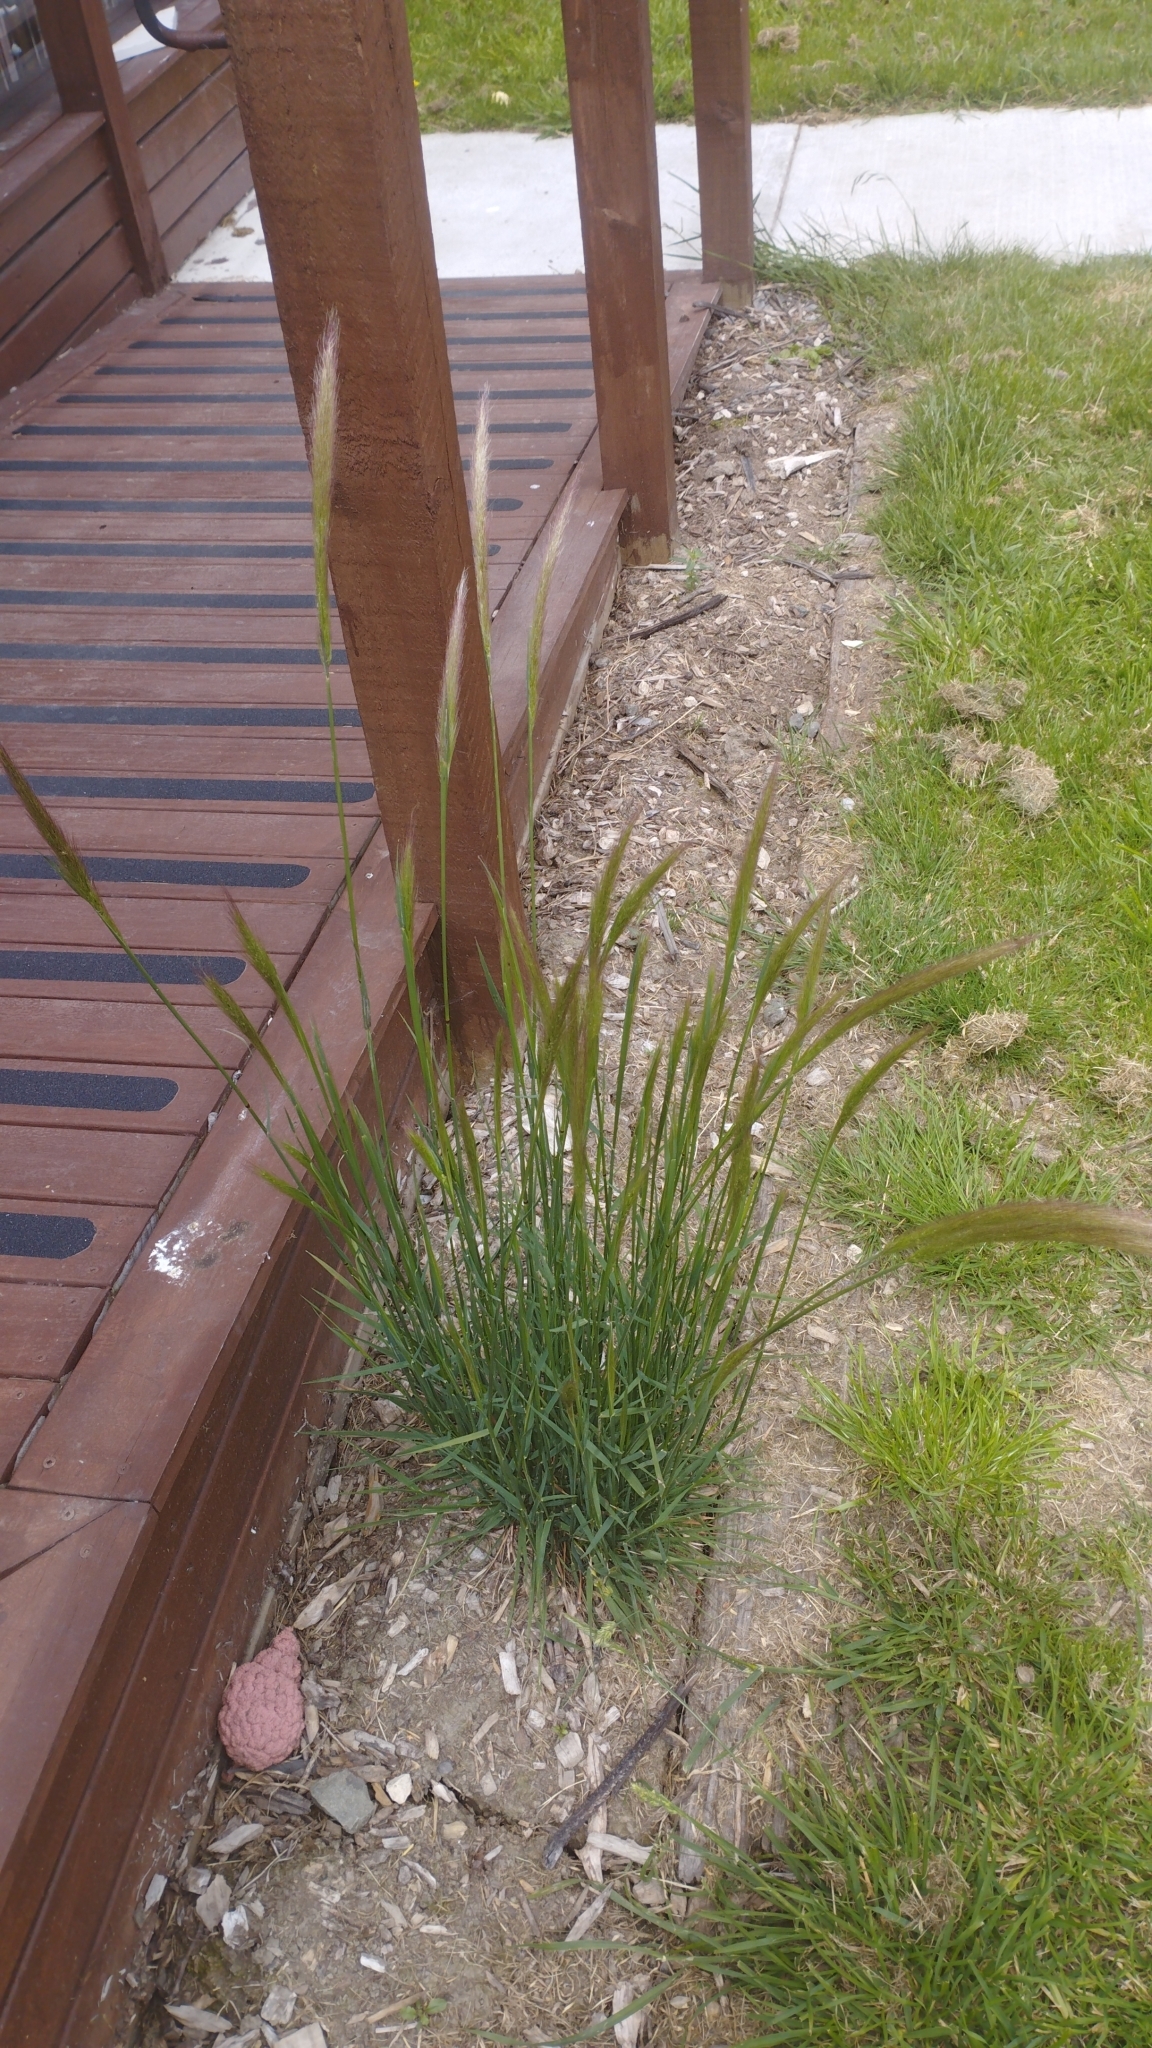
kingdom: Plantae
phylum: Tracheophyta
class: Liliopsida
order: Poales
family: Poaceae
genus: Dichelachne
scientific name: Dichelachne crinita
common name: Clovenfoot plumegrass
